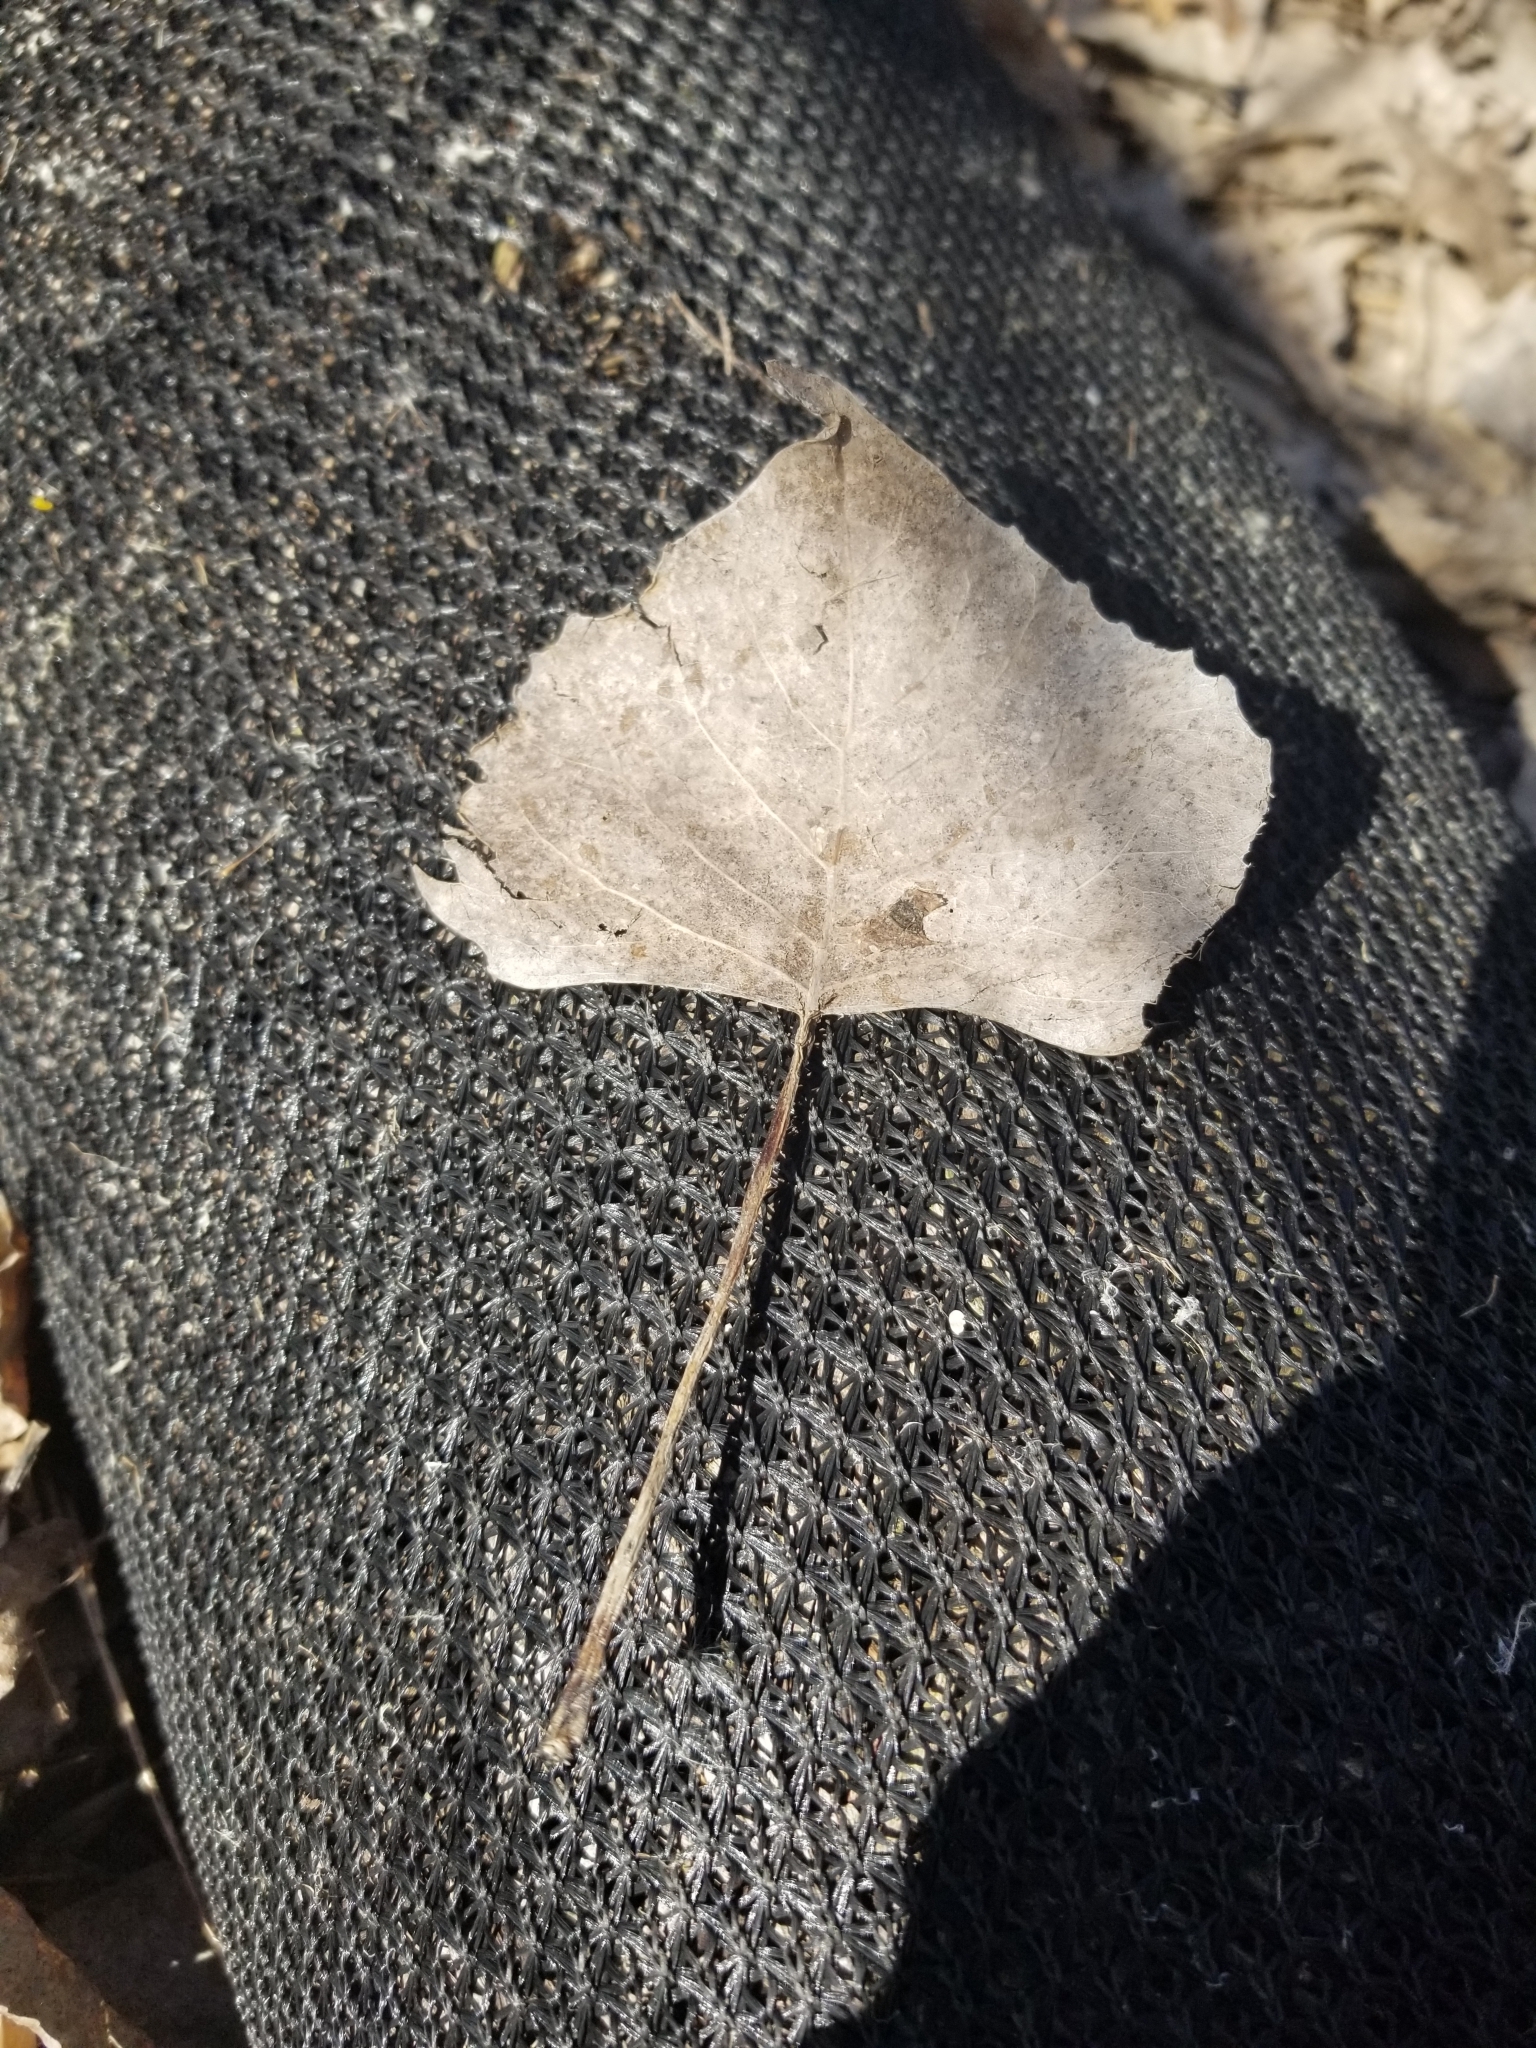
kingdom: Plantae
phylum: Tracheophyta
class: Magnoliopsida
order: Malpighiales
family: Salicaceae
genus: Populus
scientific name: Populus deltoides
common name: Eastern cottonwood
